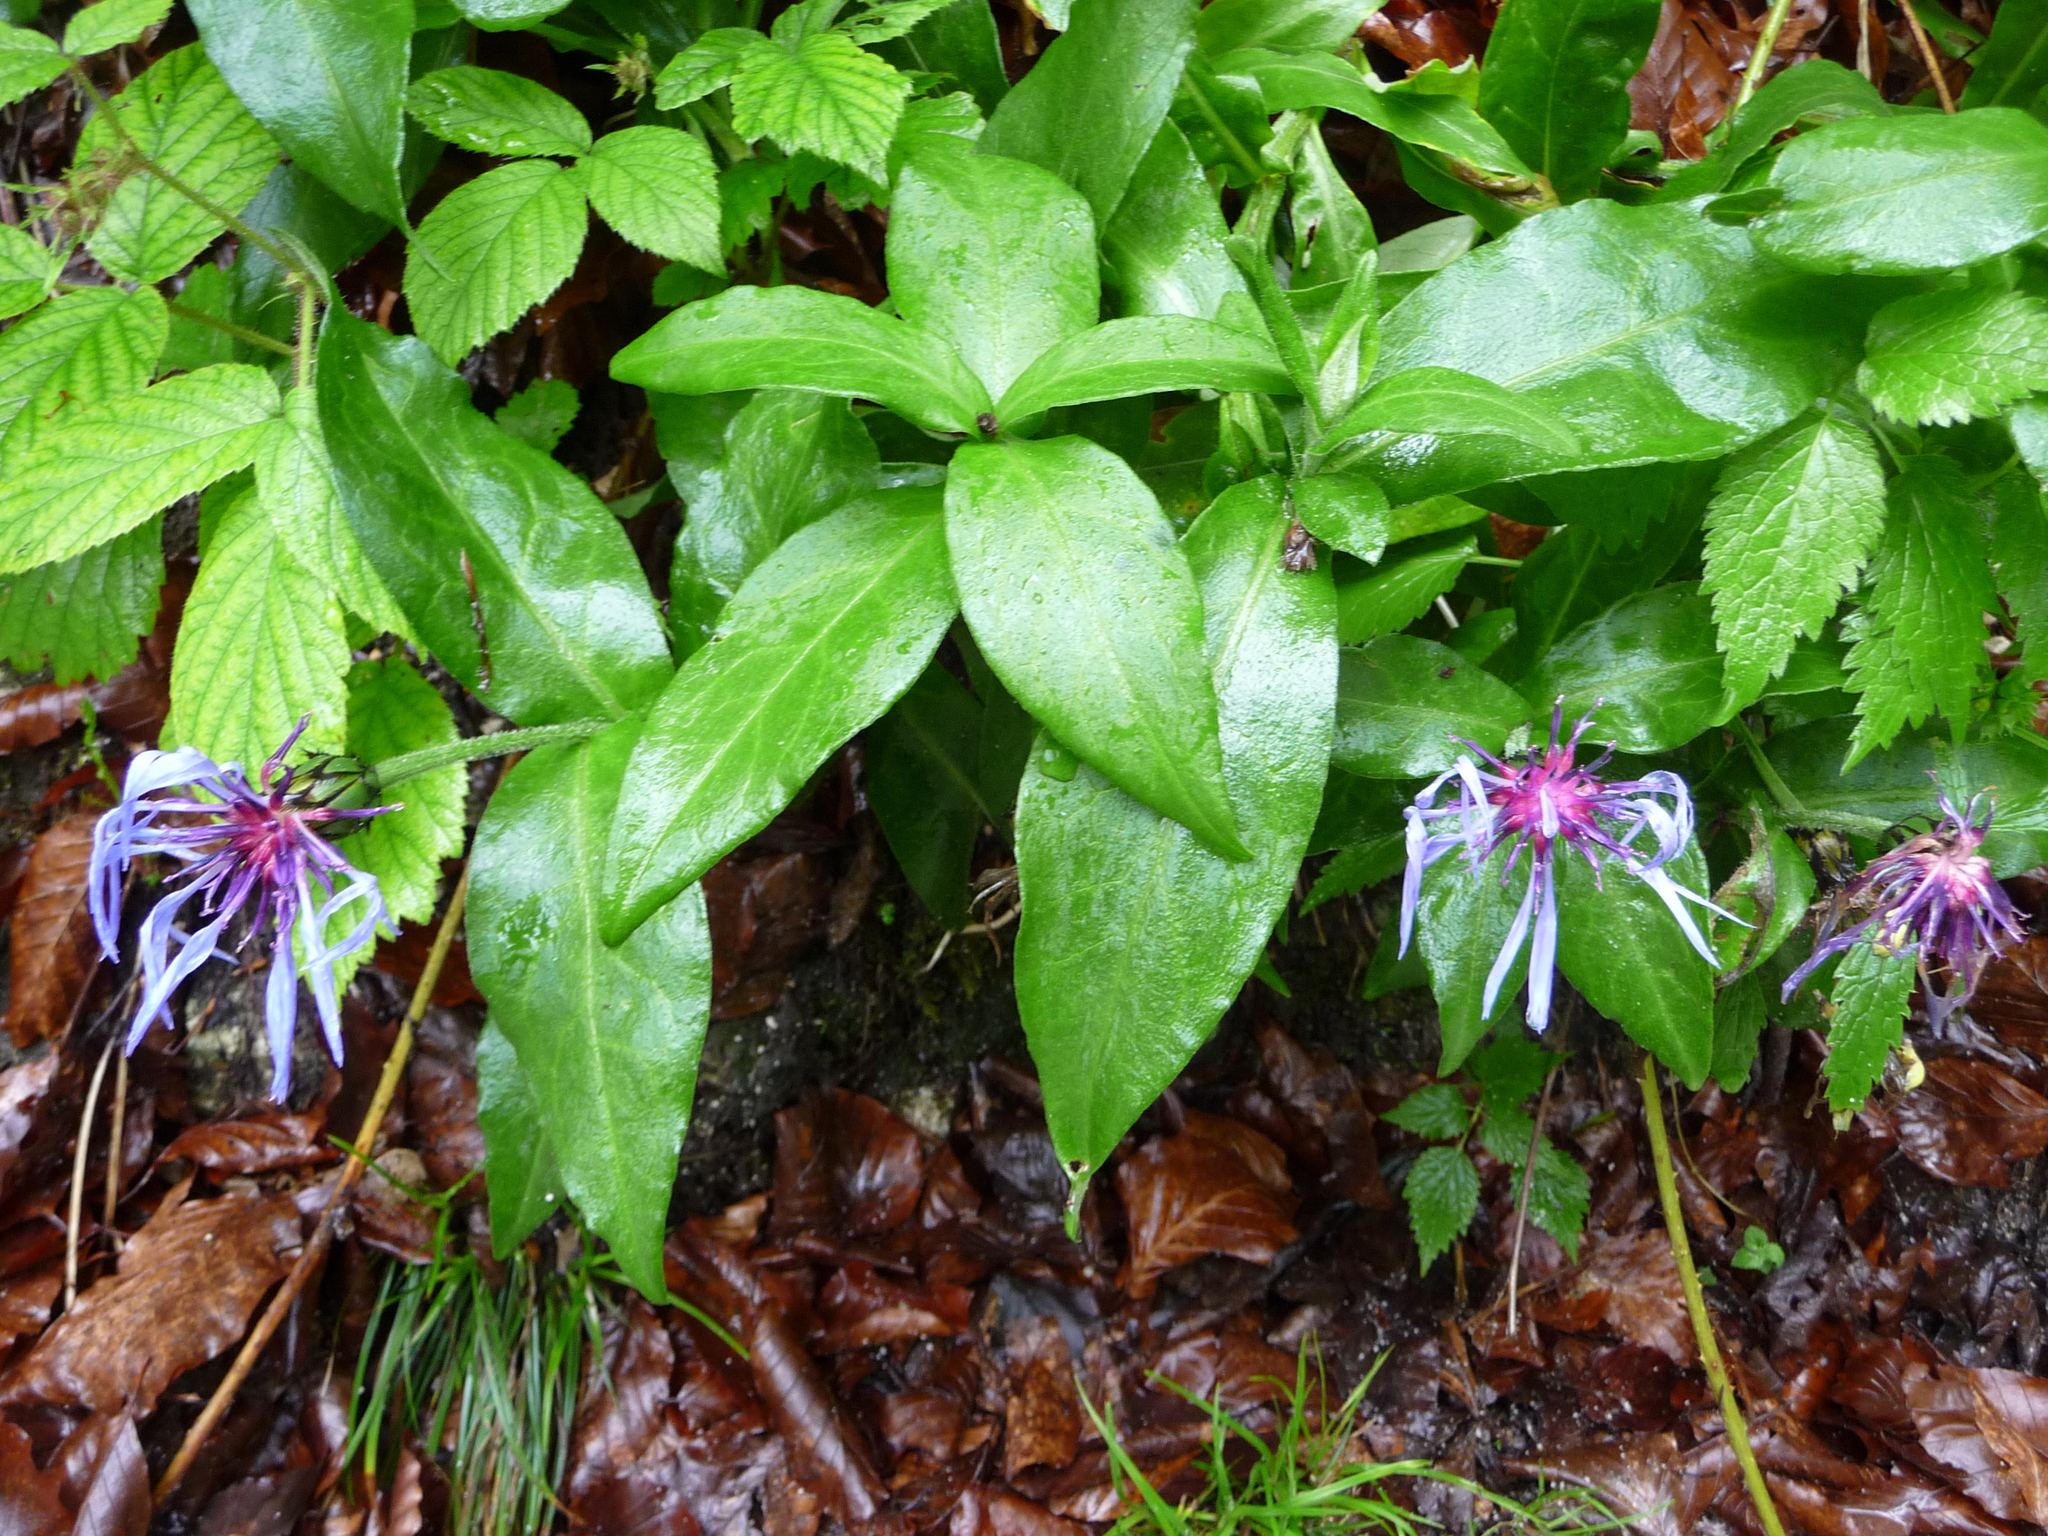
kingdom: Plantae
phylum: Tracheophyta
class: Magnoliopsida
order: Asterales
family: Asteraceae
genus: Centaurea
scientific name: Centaurea montana
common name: Perennial cornflower
